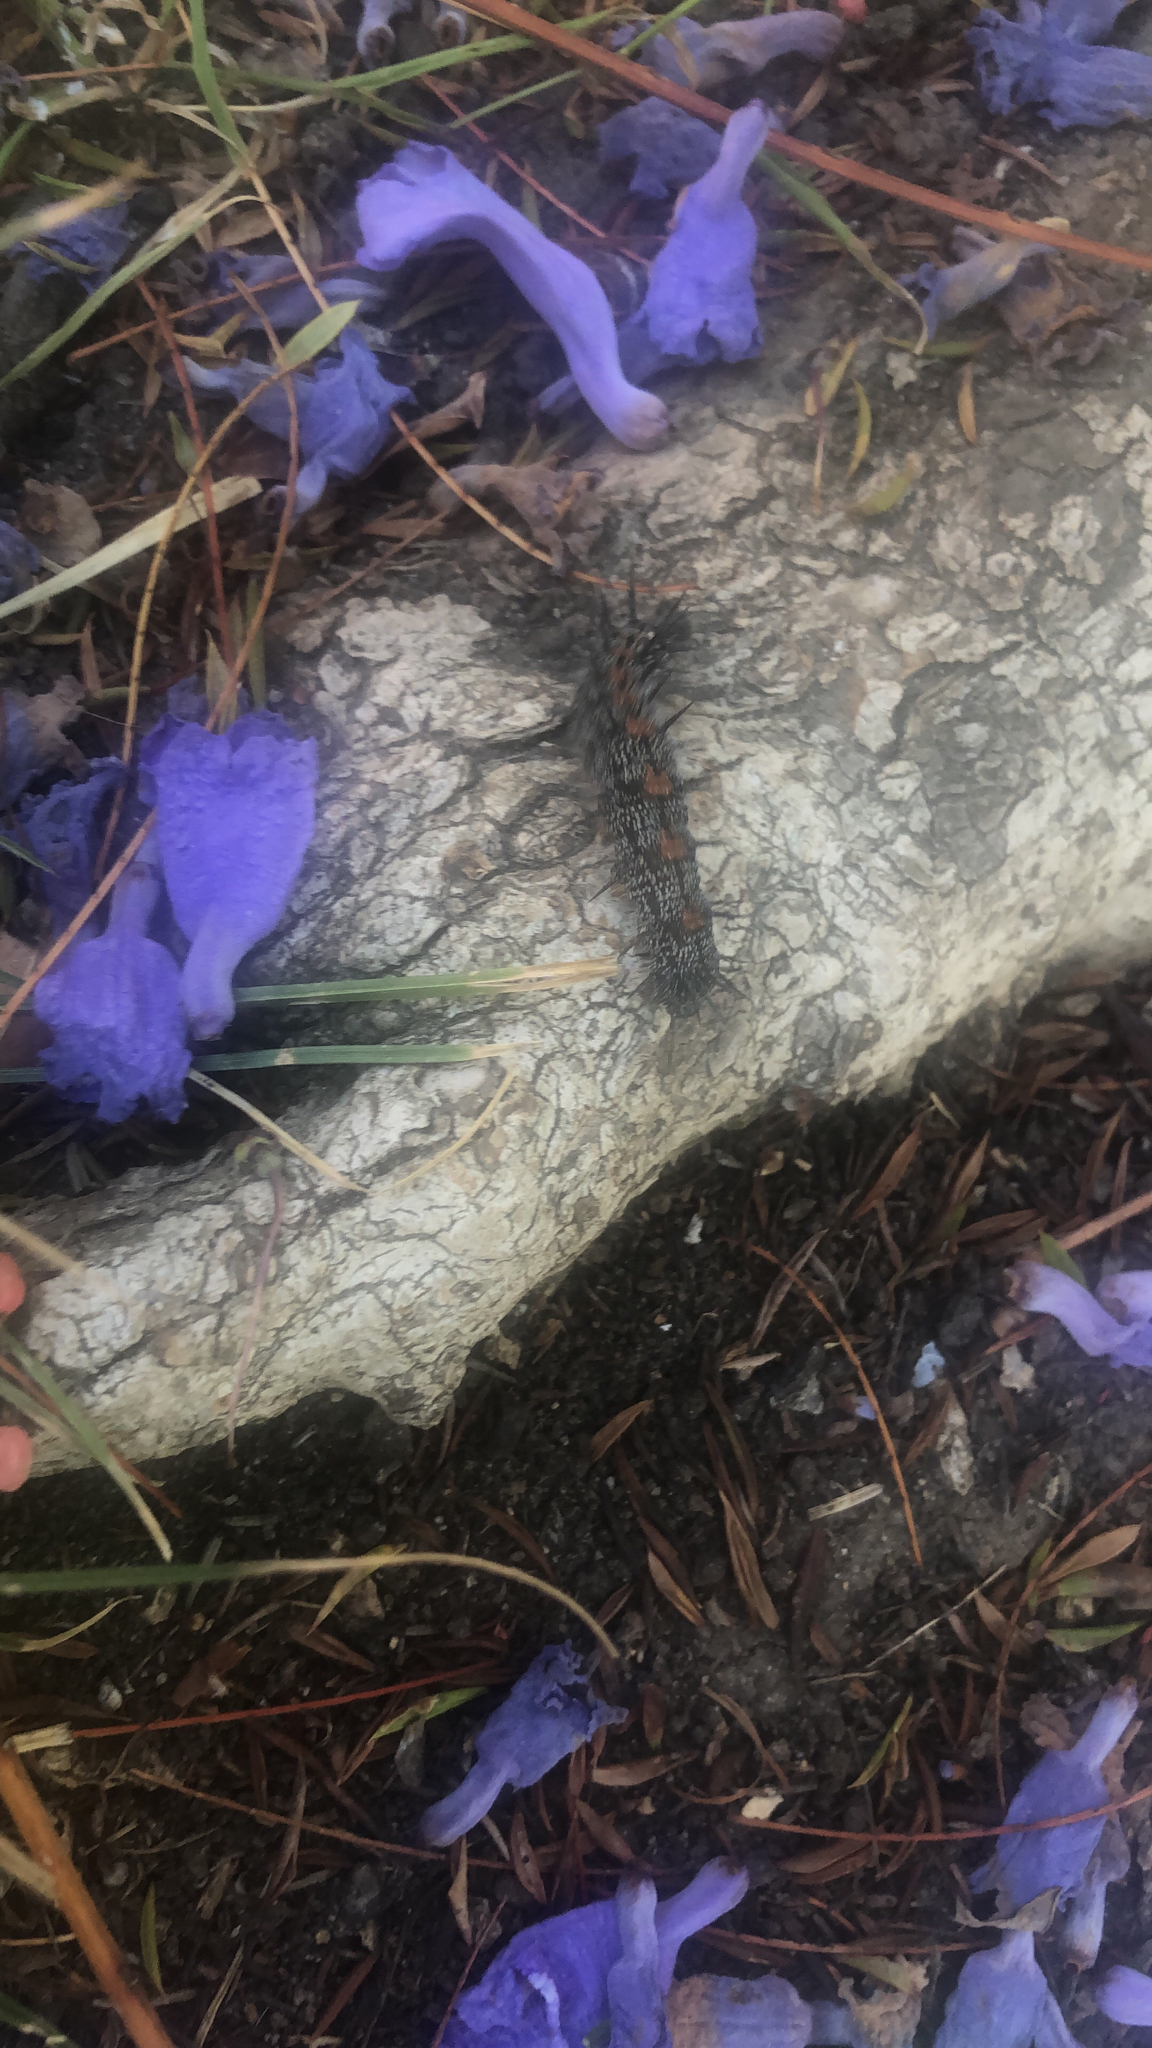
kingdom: Animalia
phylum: Arthropoda
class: Insecta
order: Lepidoptera
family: Nymphalidae
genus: Nymphalis
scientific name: Nymphalis antiopa
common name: Camberwell beauty
